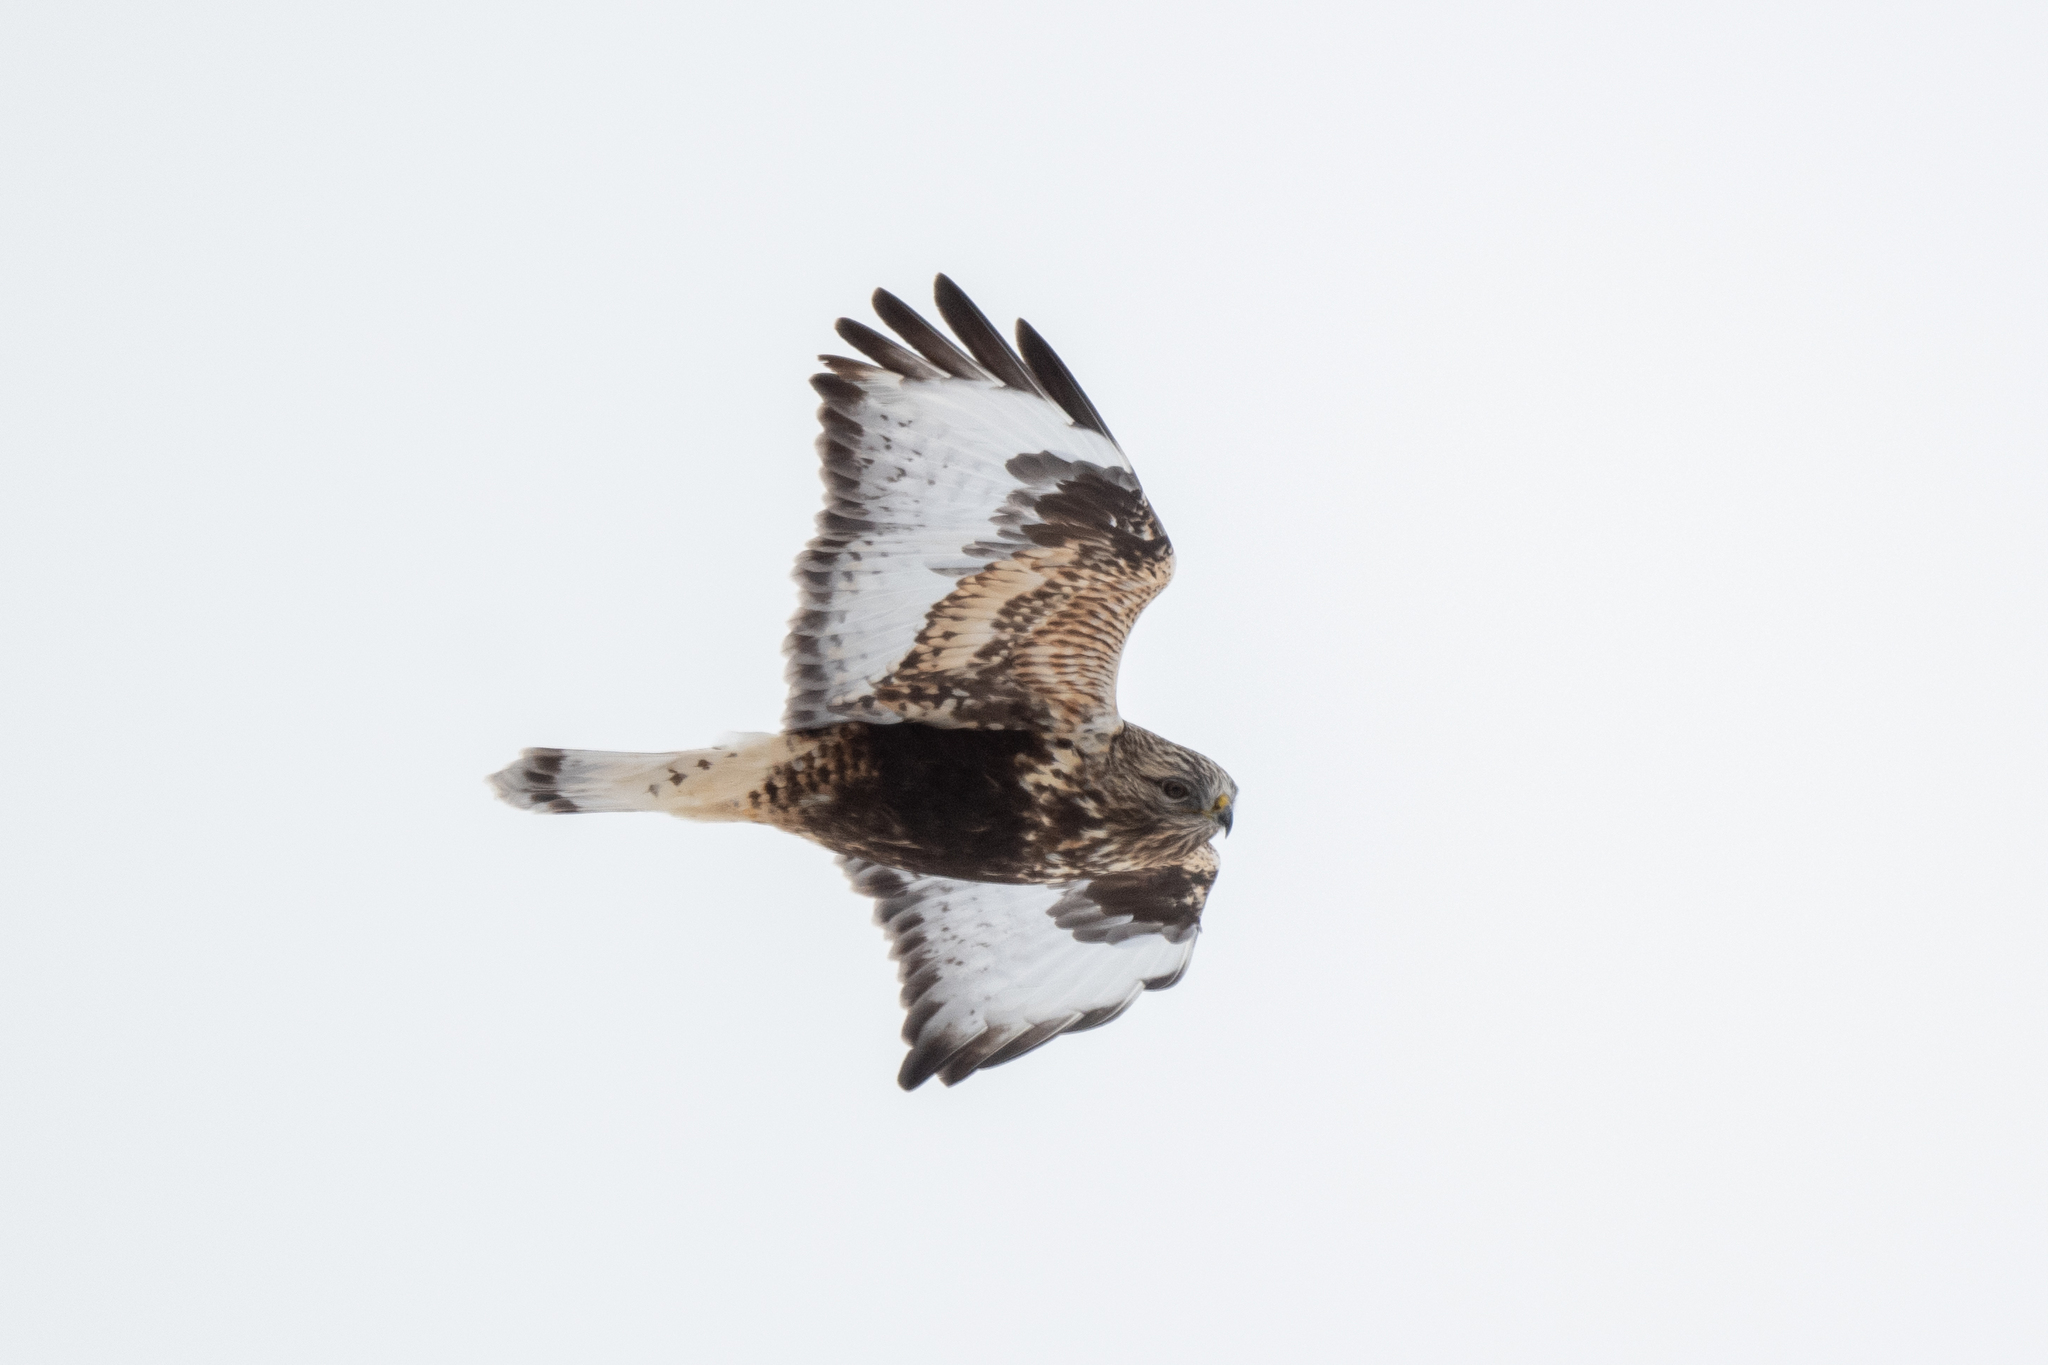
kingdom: Animalia
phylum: Chordata
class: Aves
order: Accipitriformes
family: Accipitridae
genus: Buteo
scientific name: Buteo lagopus
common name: Rough-legged buzzard
